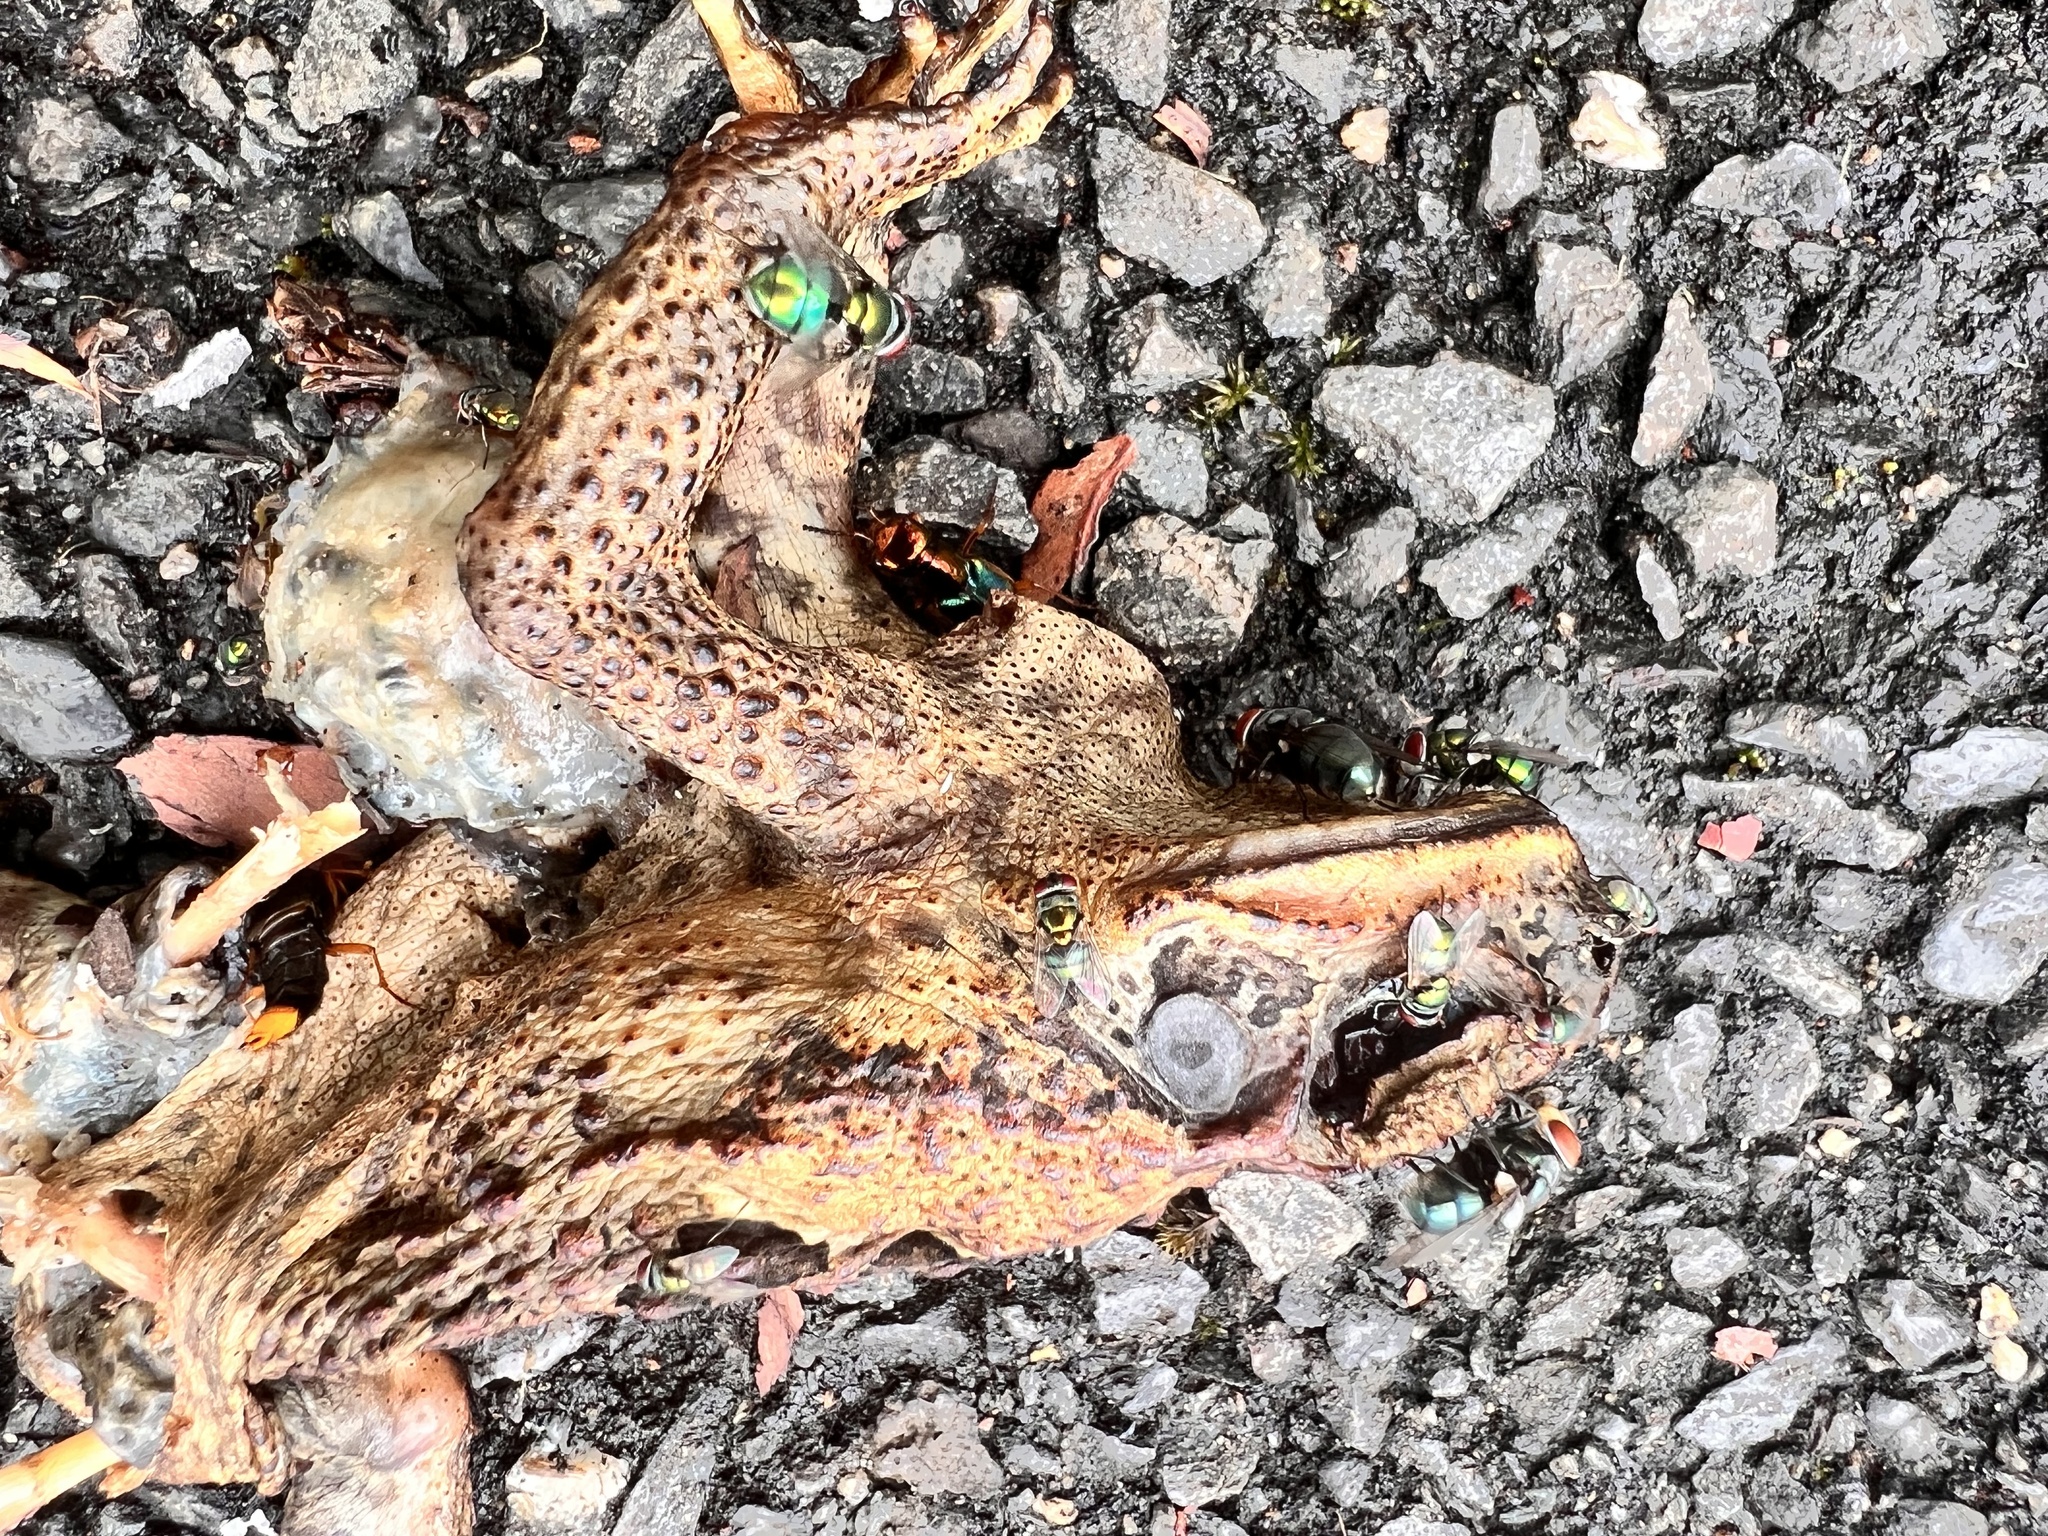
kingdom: Animalia
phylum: Chordata
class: Amphibia
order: Anura
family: Bufonidae
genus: Rhinella
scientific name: Rhinella marina
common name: Cane toad
